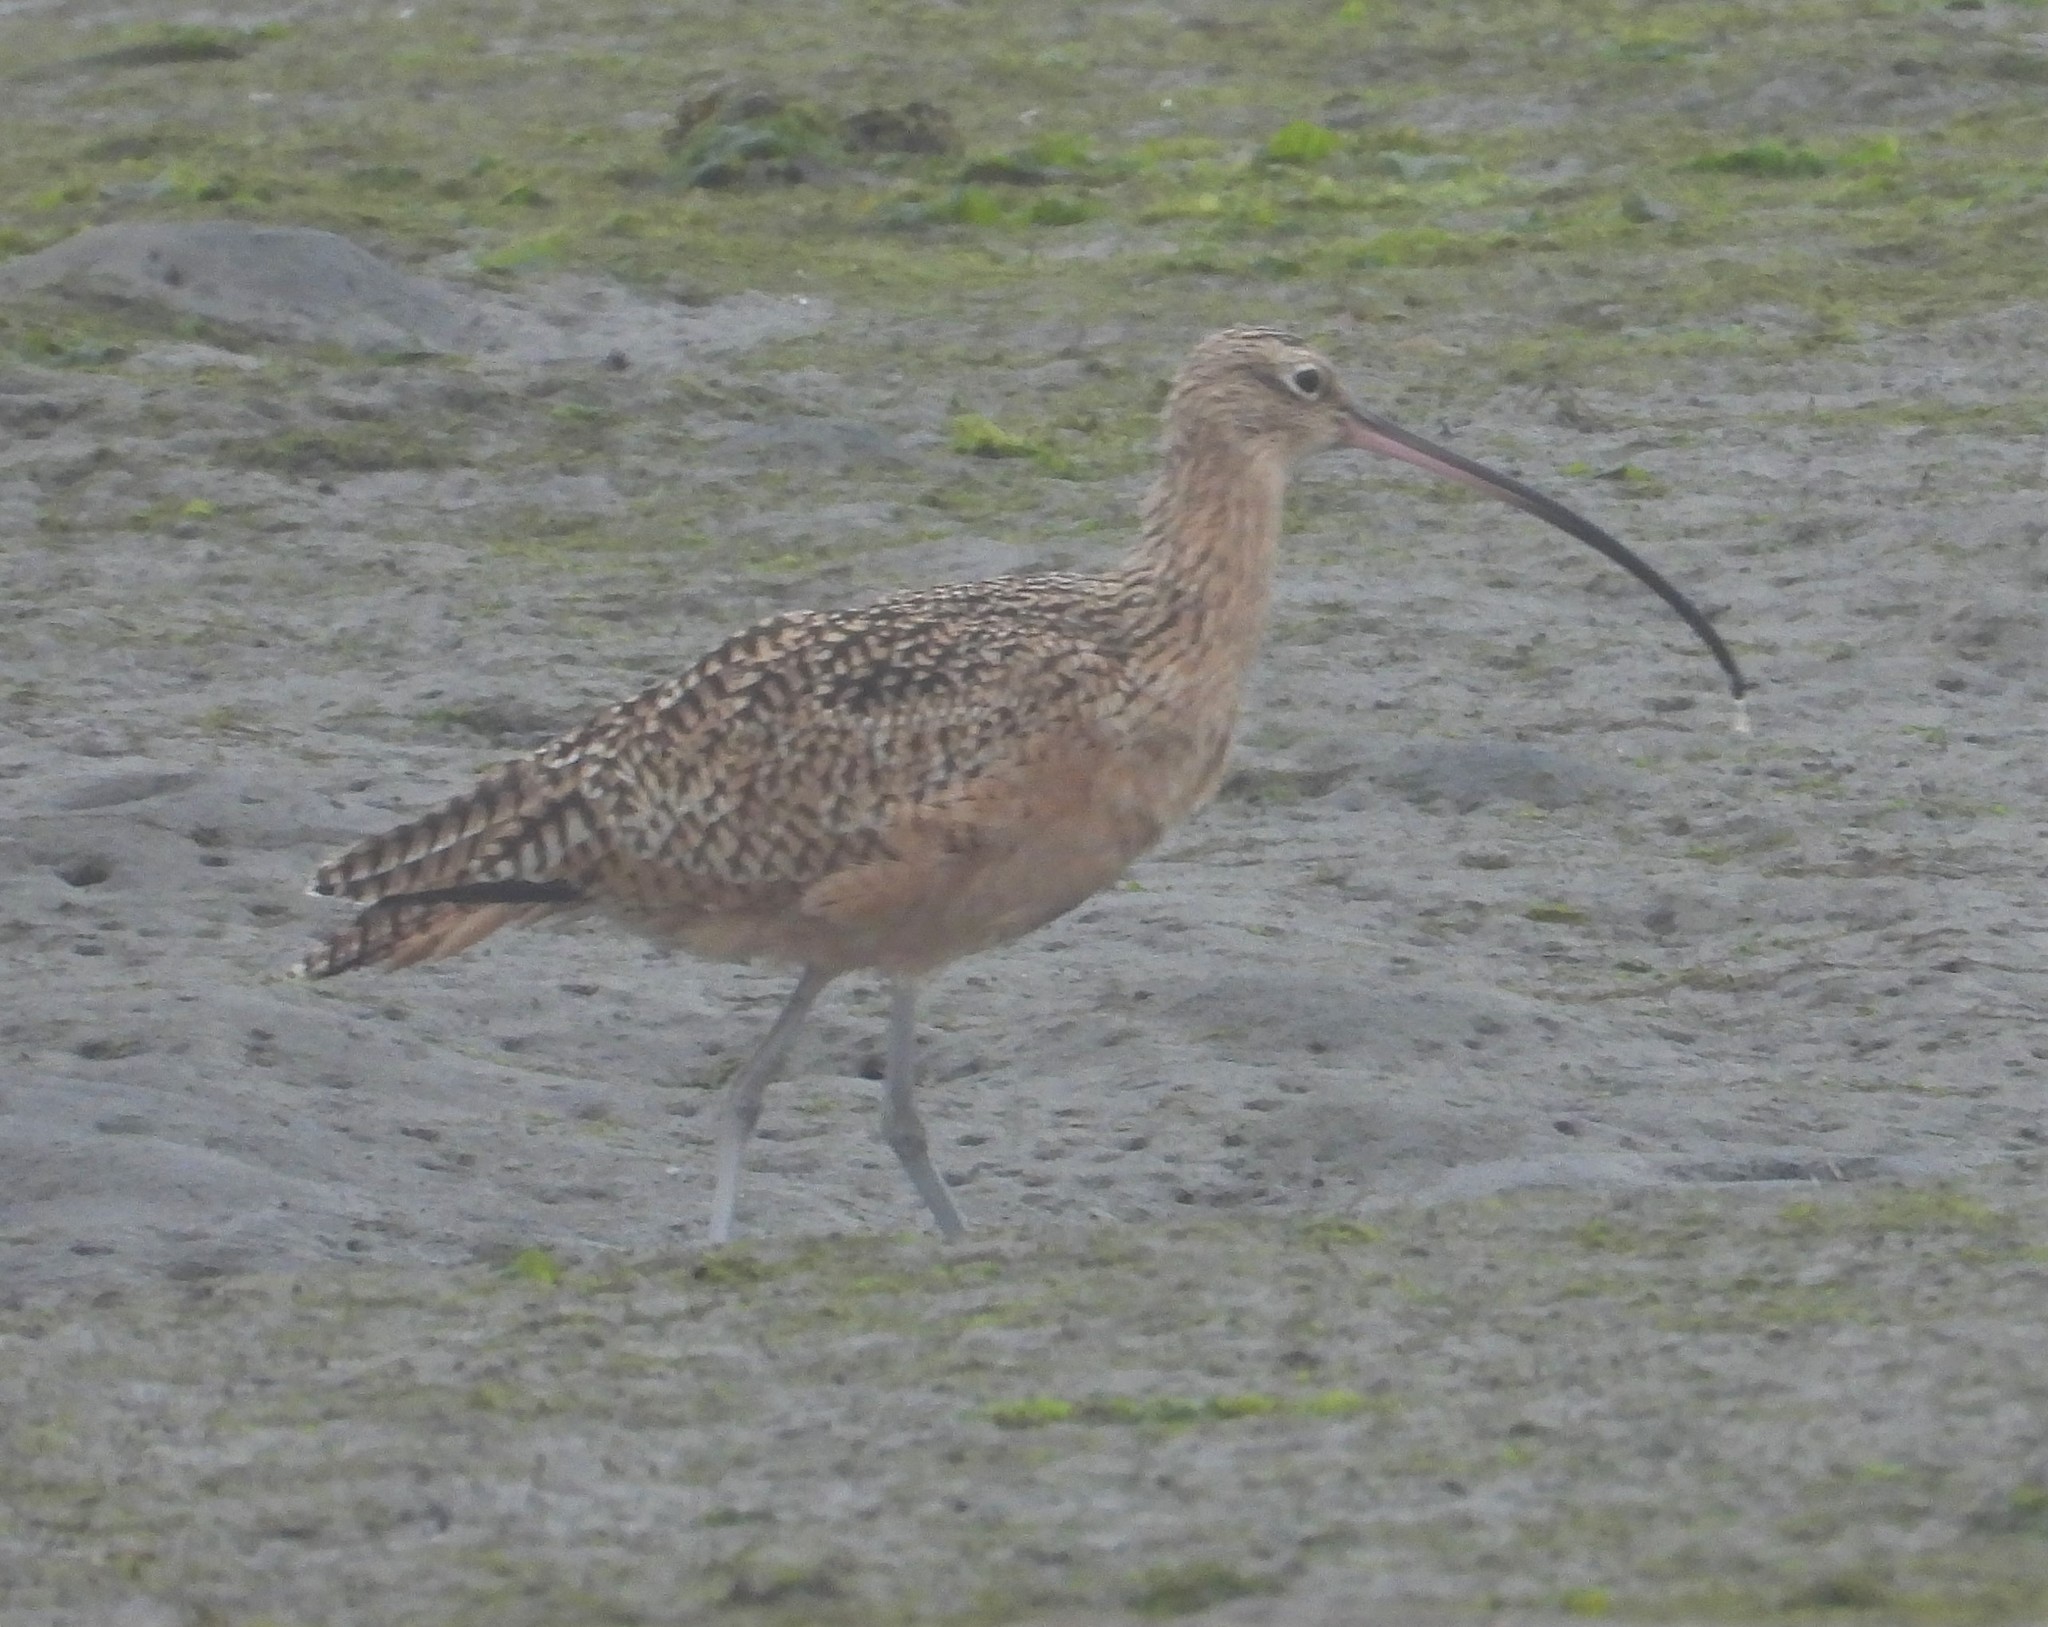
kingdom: Animalia
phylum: Chordata
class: Aves
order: Charadriiformes
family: Scolopacidae
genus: Numenius
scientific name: Numenius americanus
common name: Long-billed curlew
